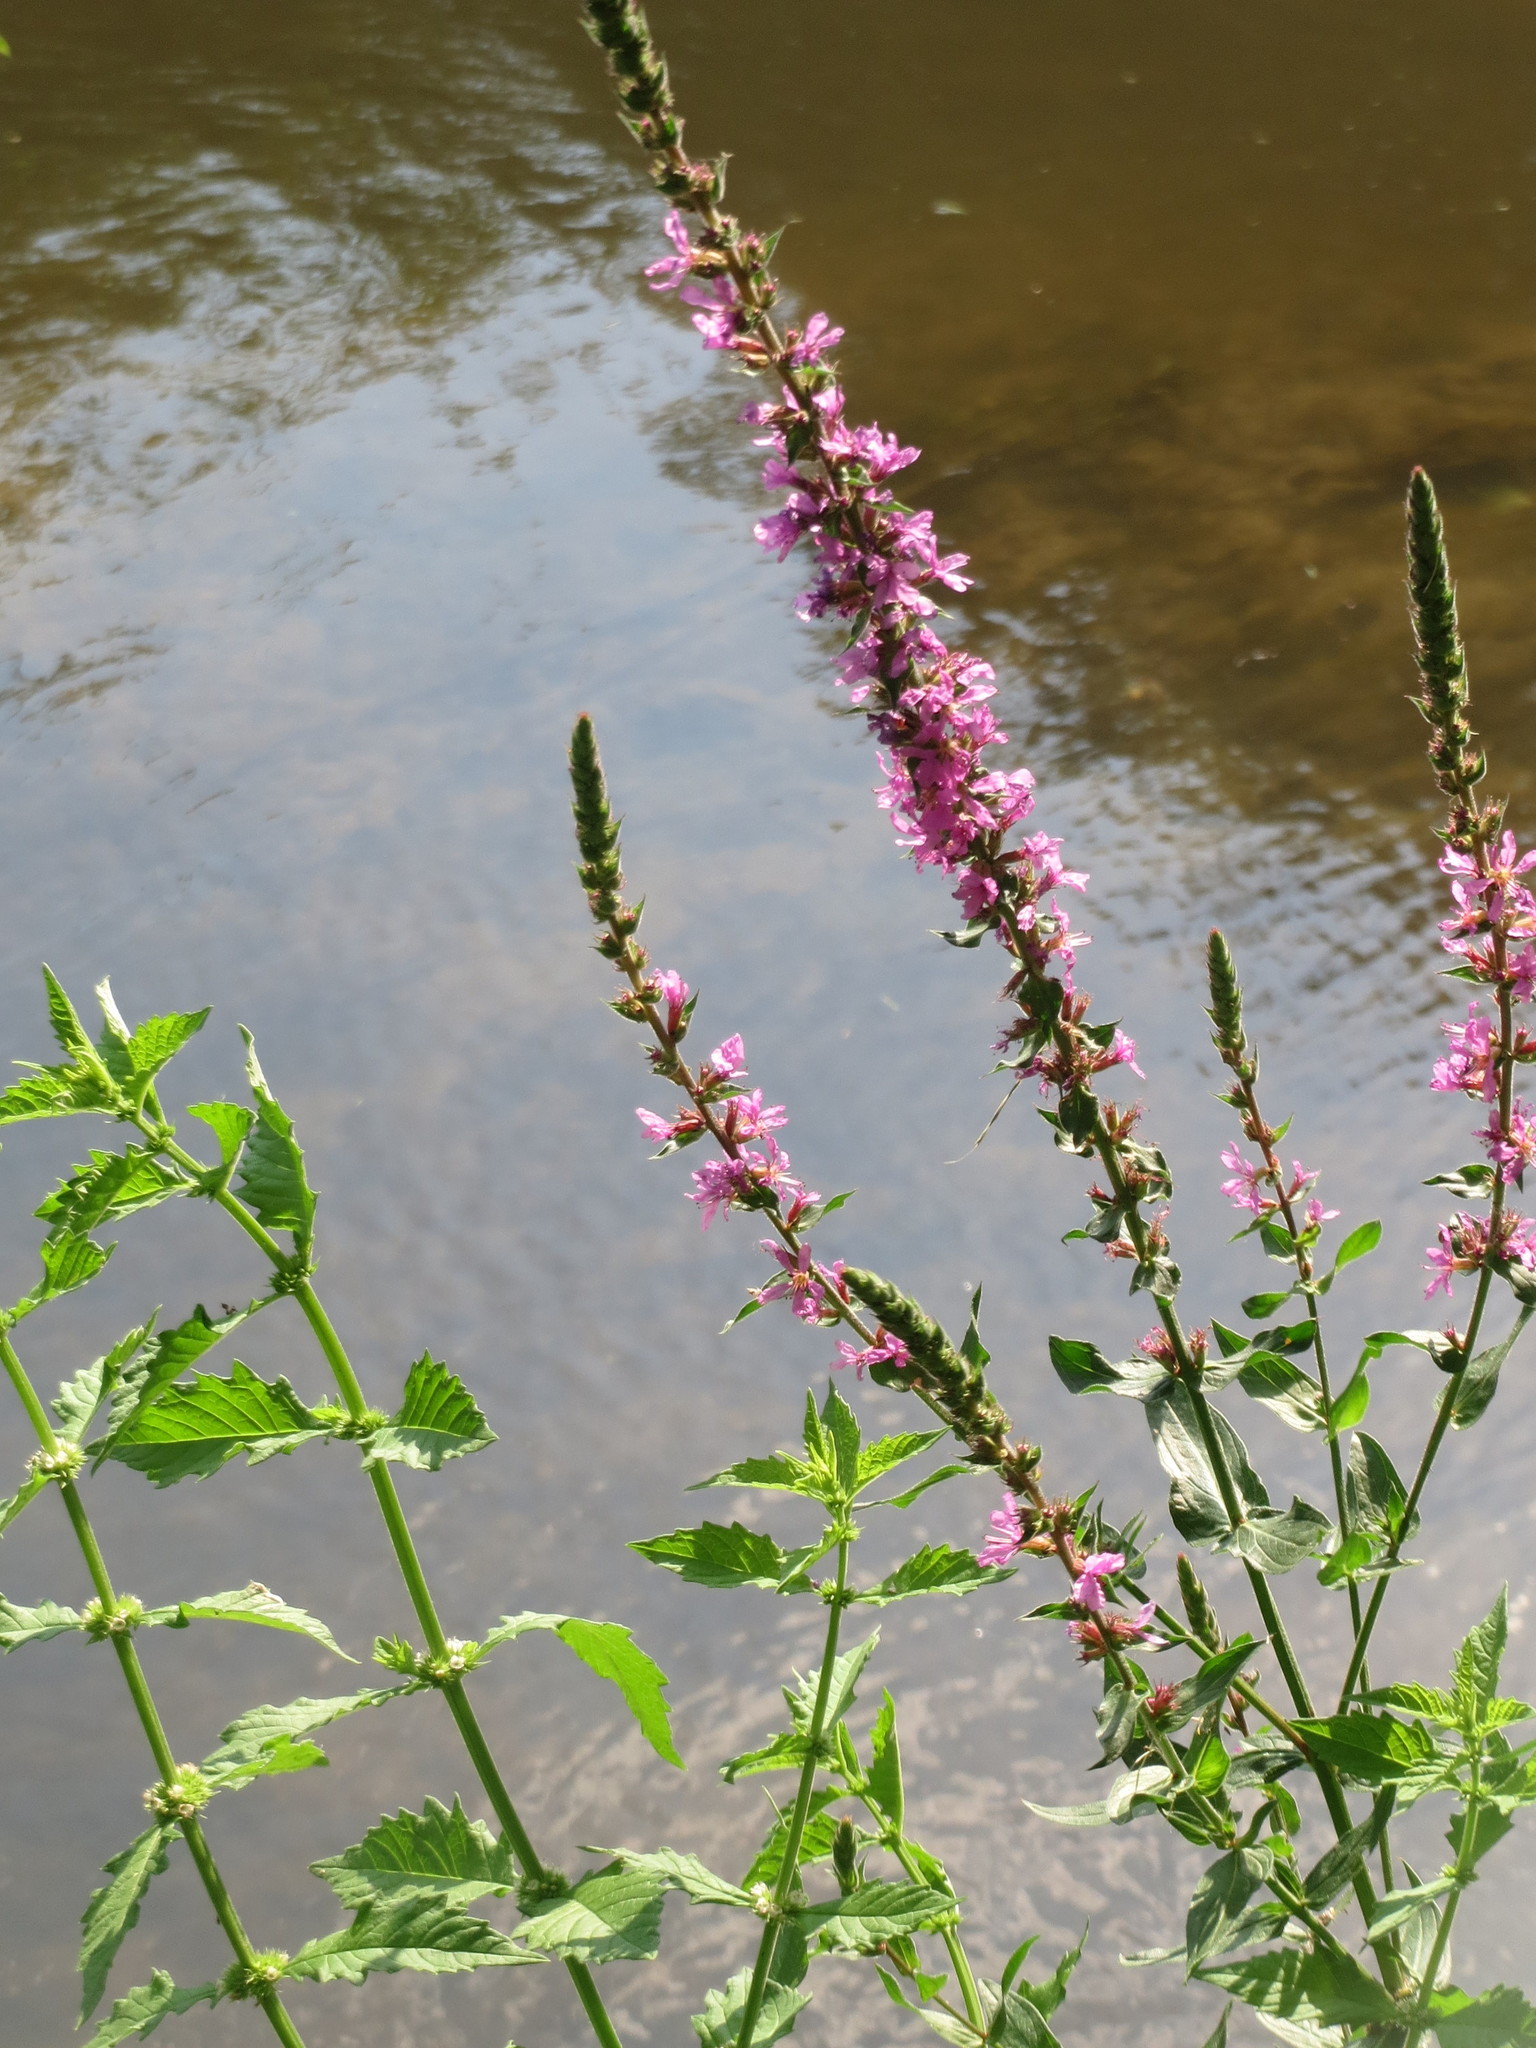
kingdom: Plantae
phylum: Tracheophyta
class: Magnoliopsida
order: Myrtales
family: Lythraceae
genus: Lythrum
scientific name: Lythrum salicaria
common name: Purple loosestrife
